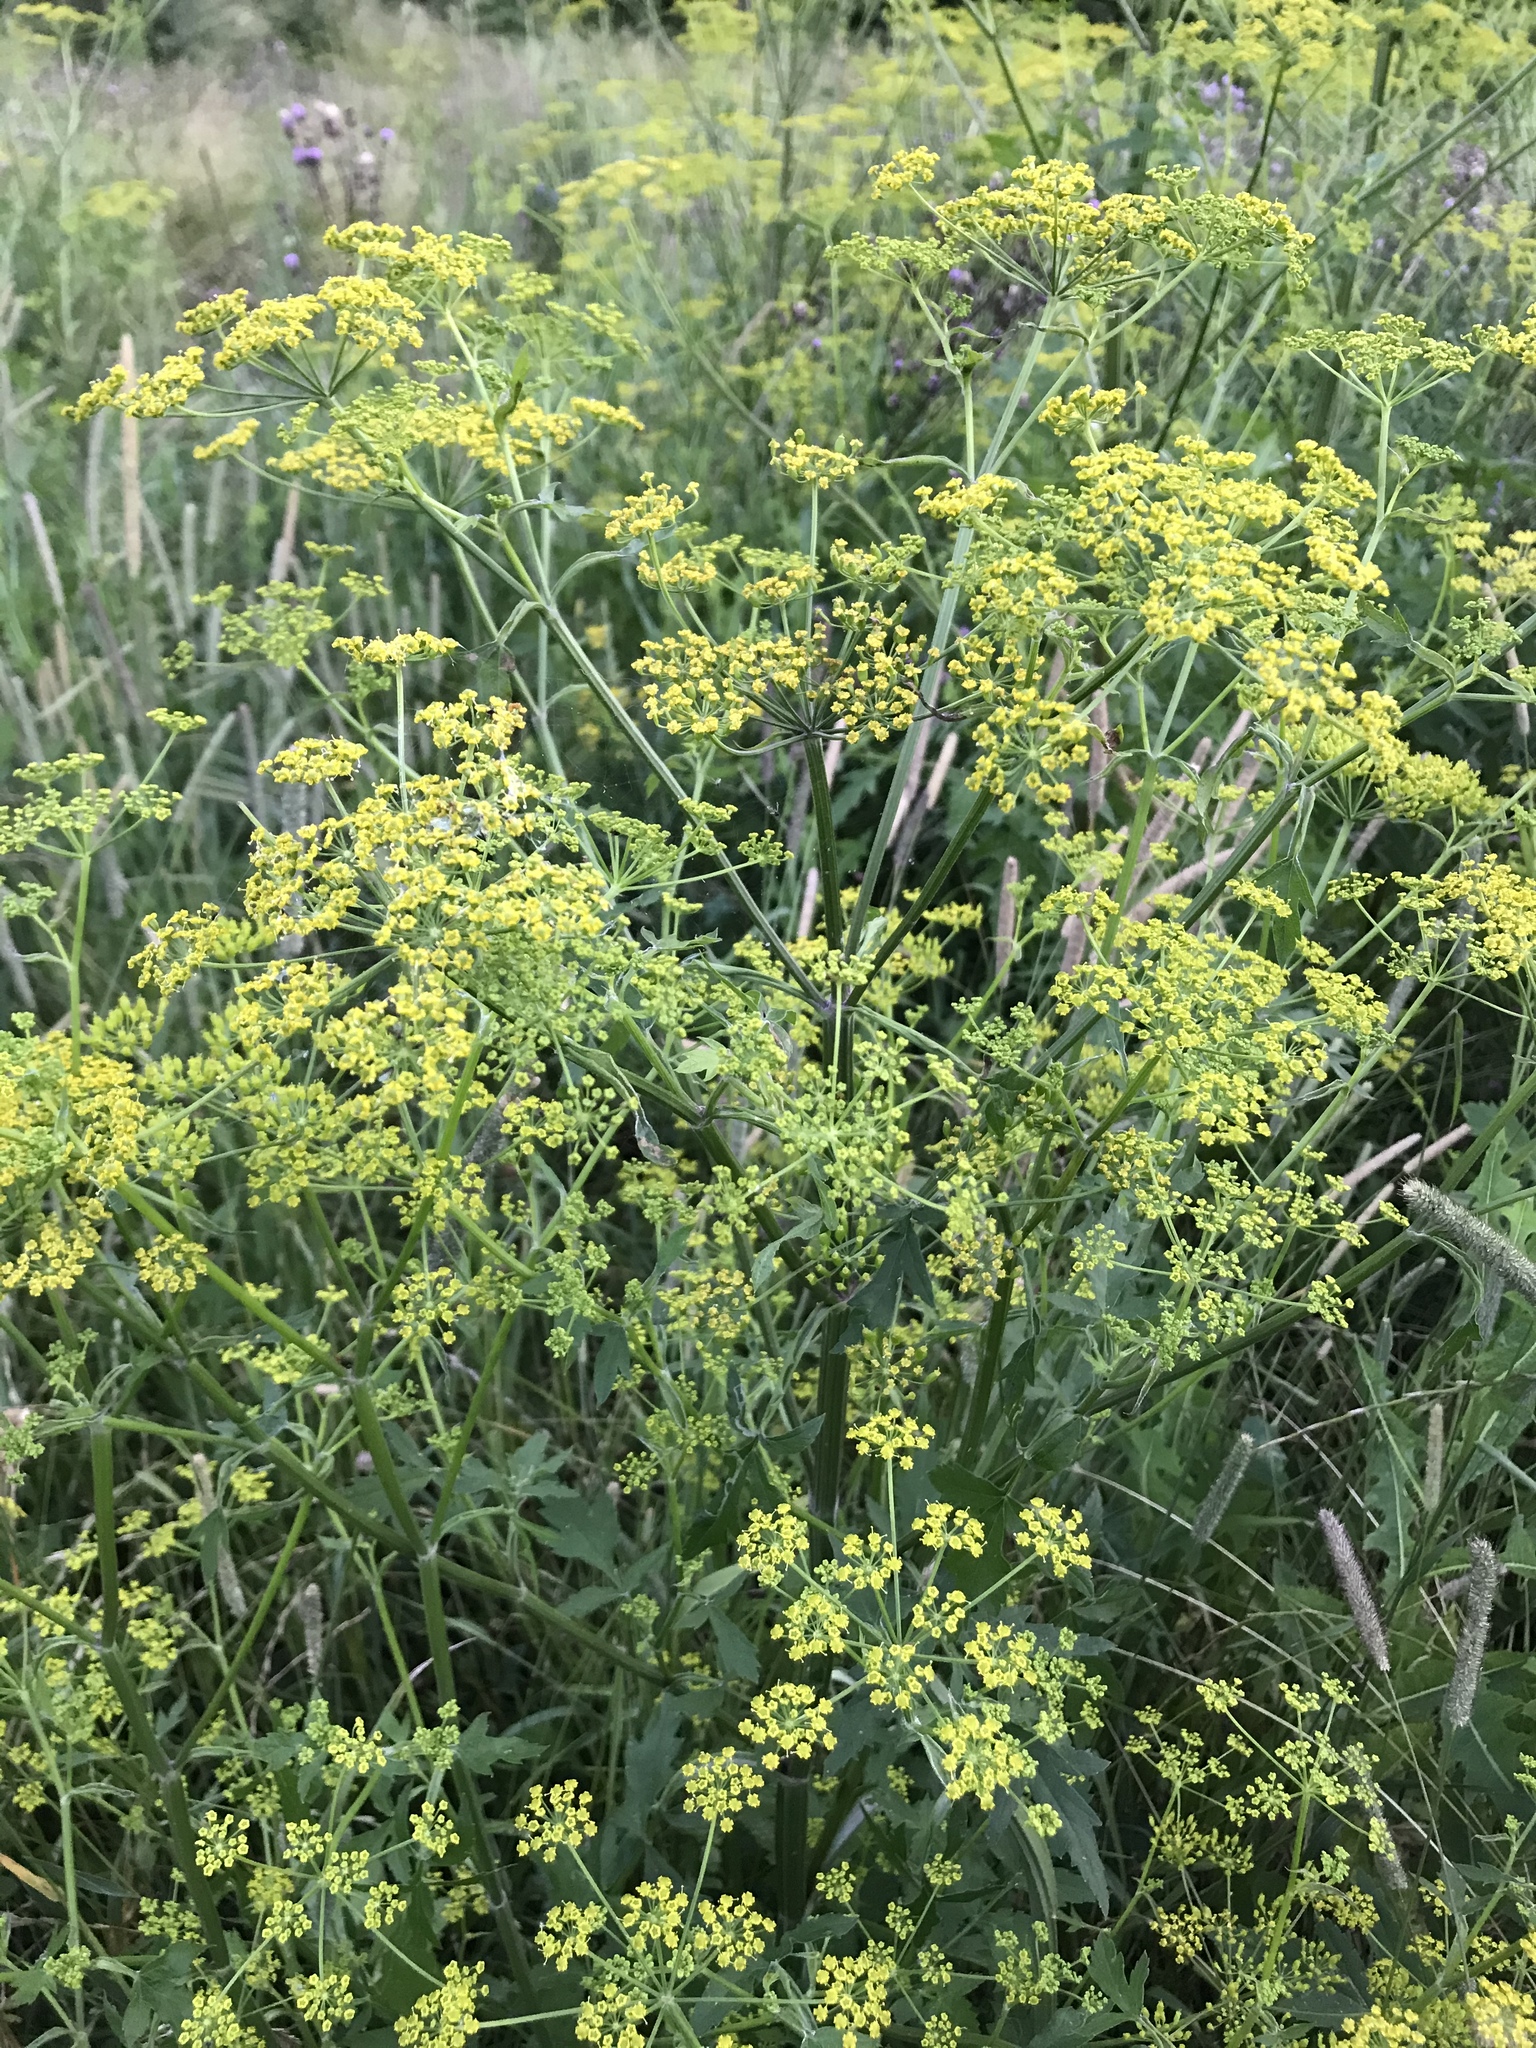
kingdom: Plantae
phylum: Tracheophyta
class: Magnoliopsida
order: Apiales
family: Apiaceae
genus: Pastinaca
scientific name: Pastinaca sativa
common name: Wild parsnip
